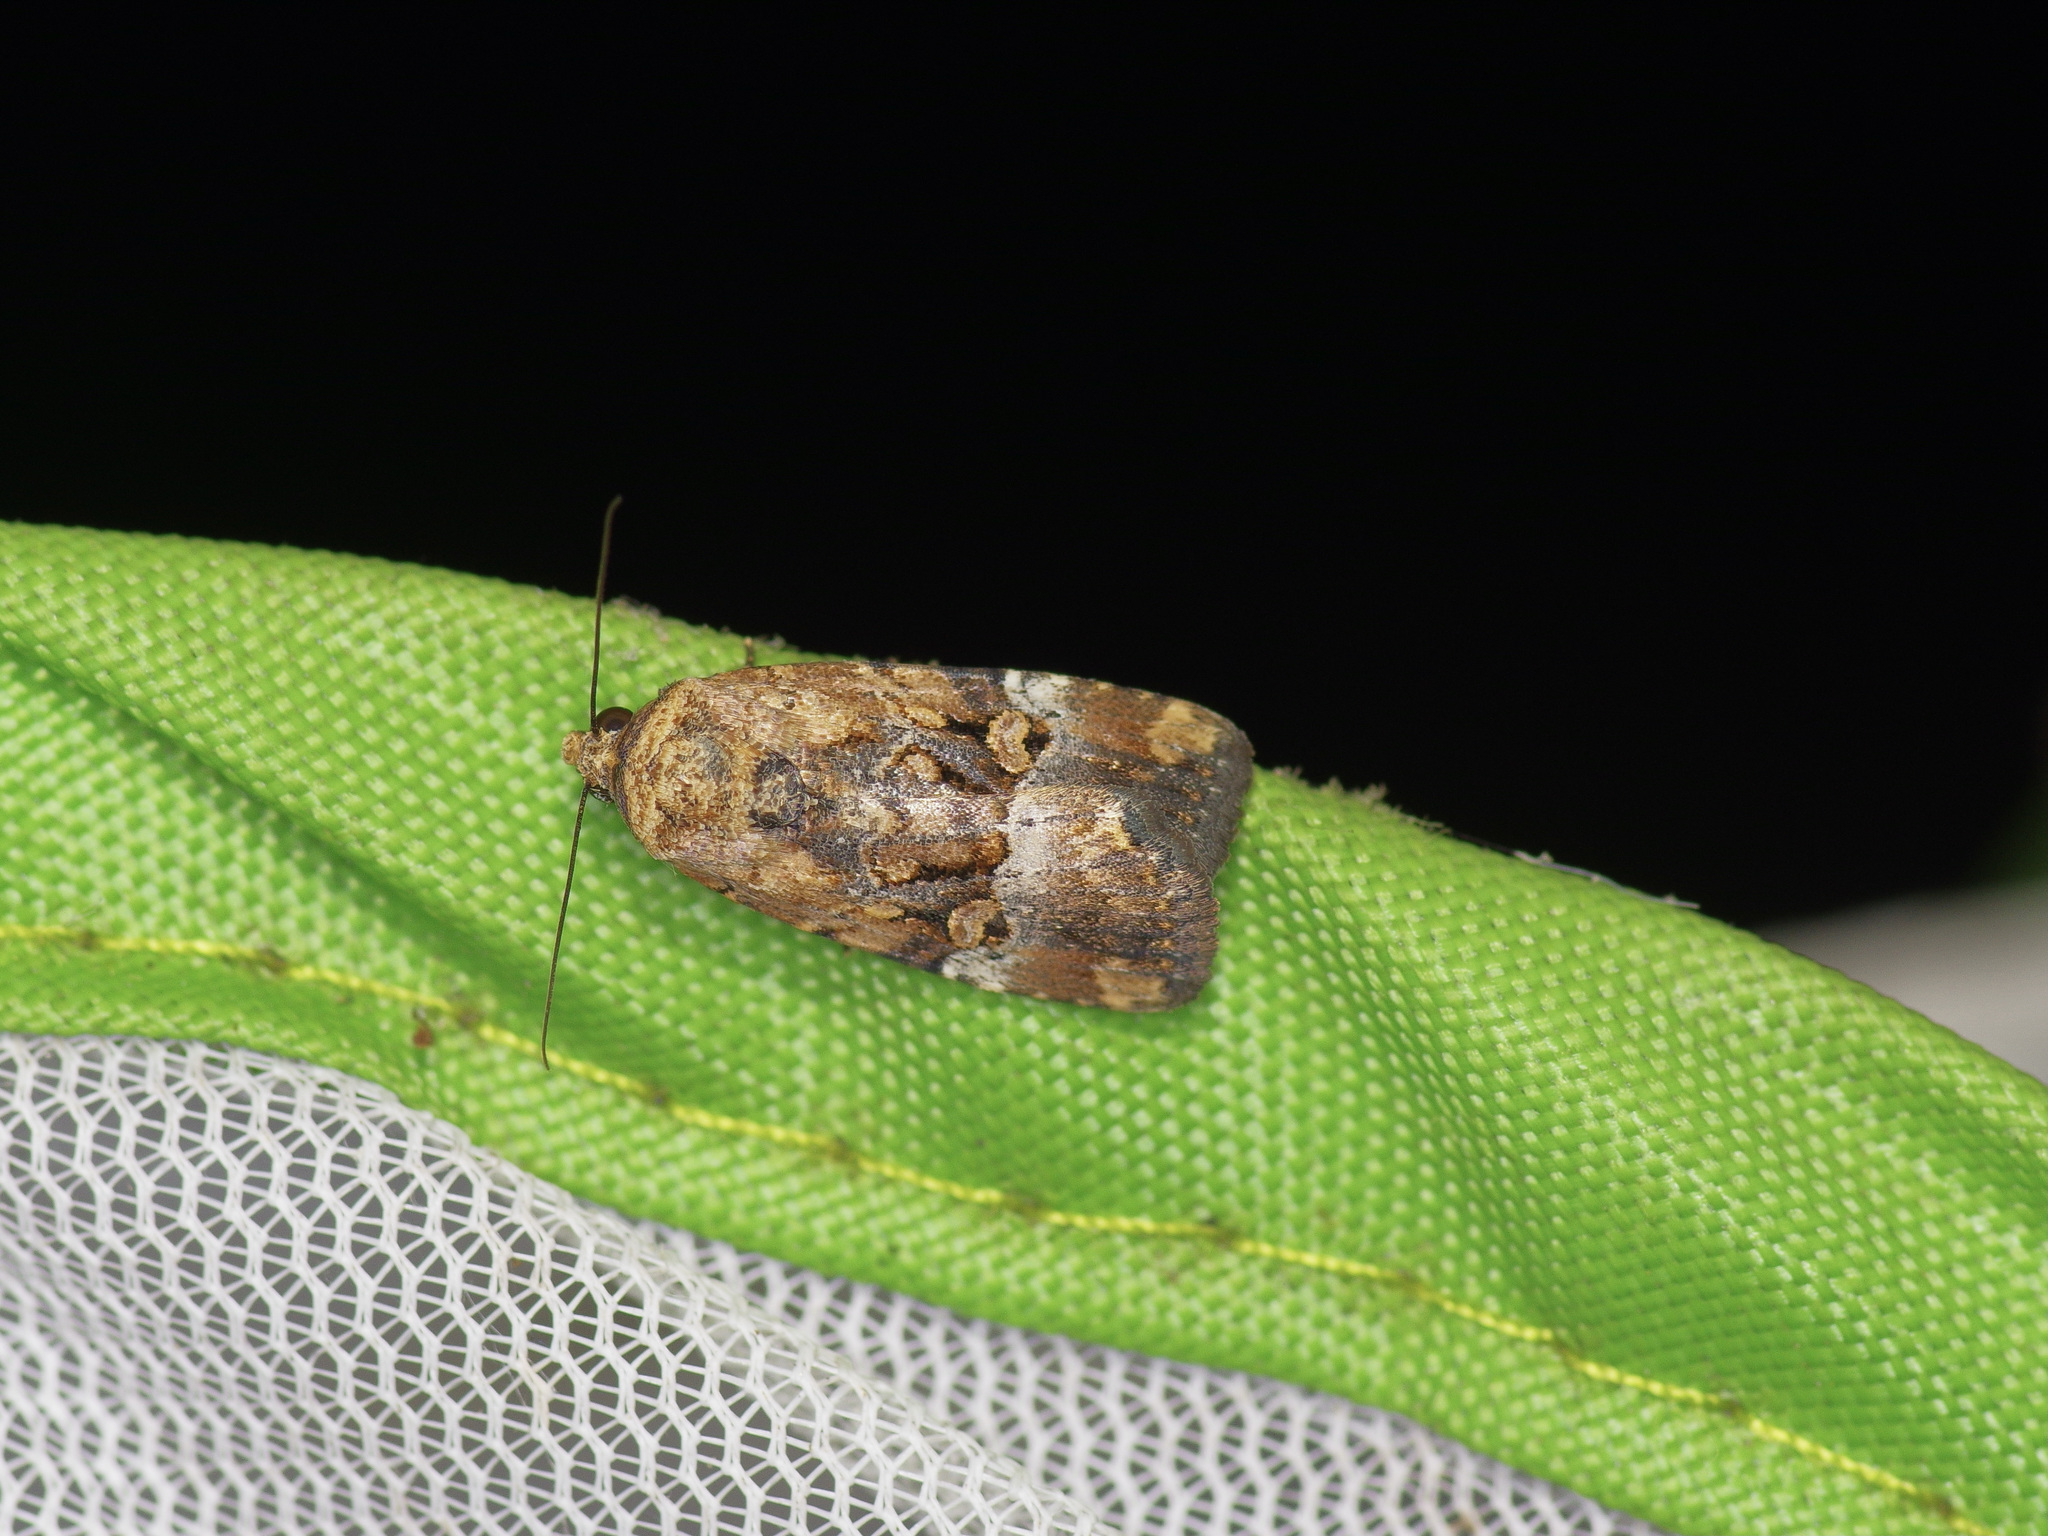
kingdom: Animalia
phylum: Arthropoda
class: Insecta
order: Lepidoptera
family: Noctuidae
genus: Elaphria
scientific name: Elaphria chalcedonia
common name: Chalcedony midget
